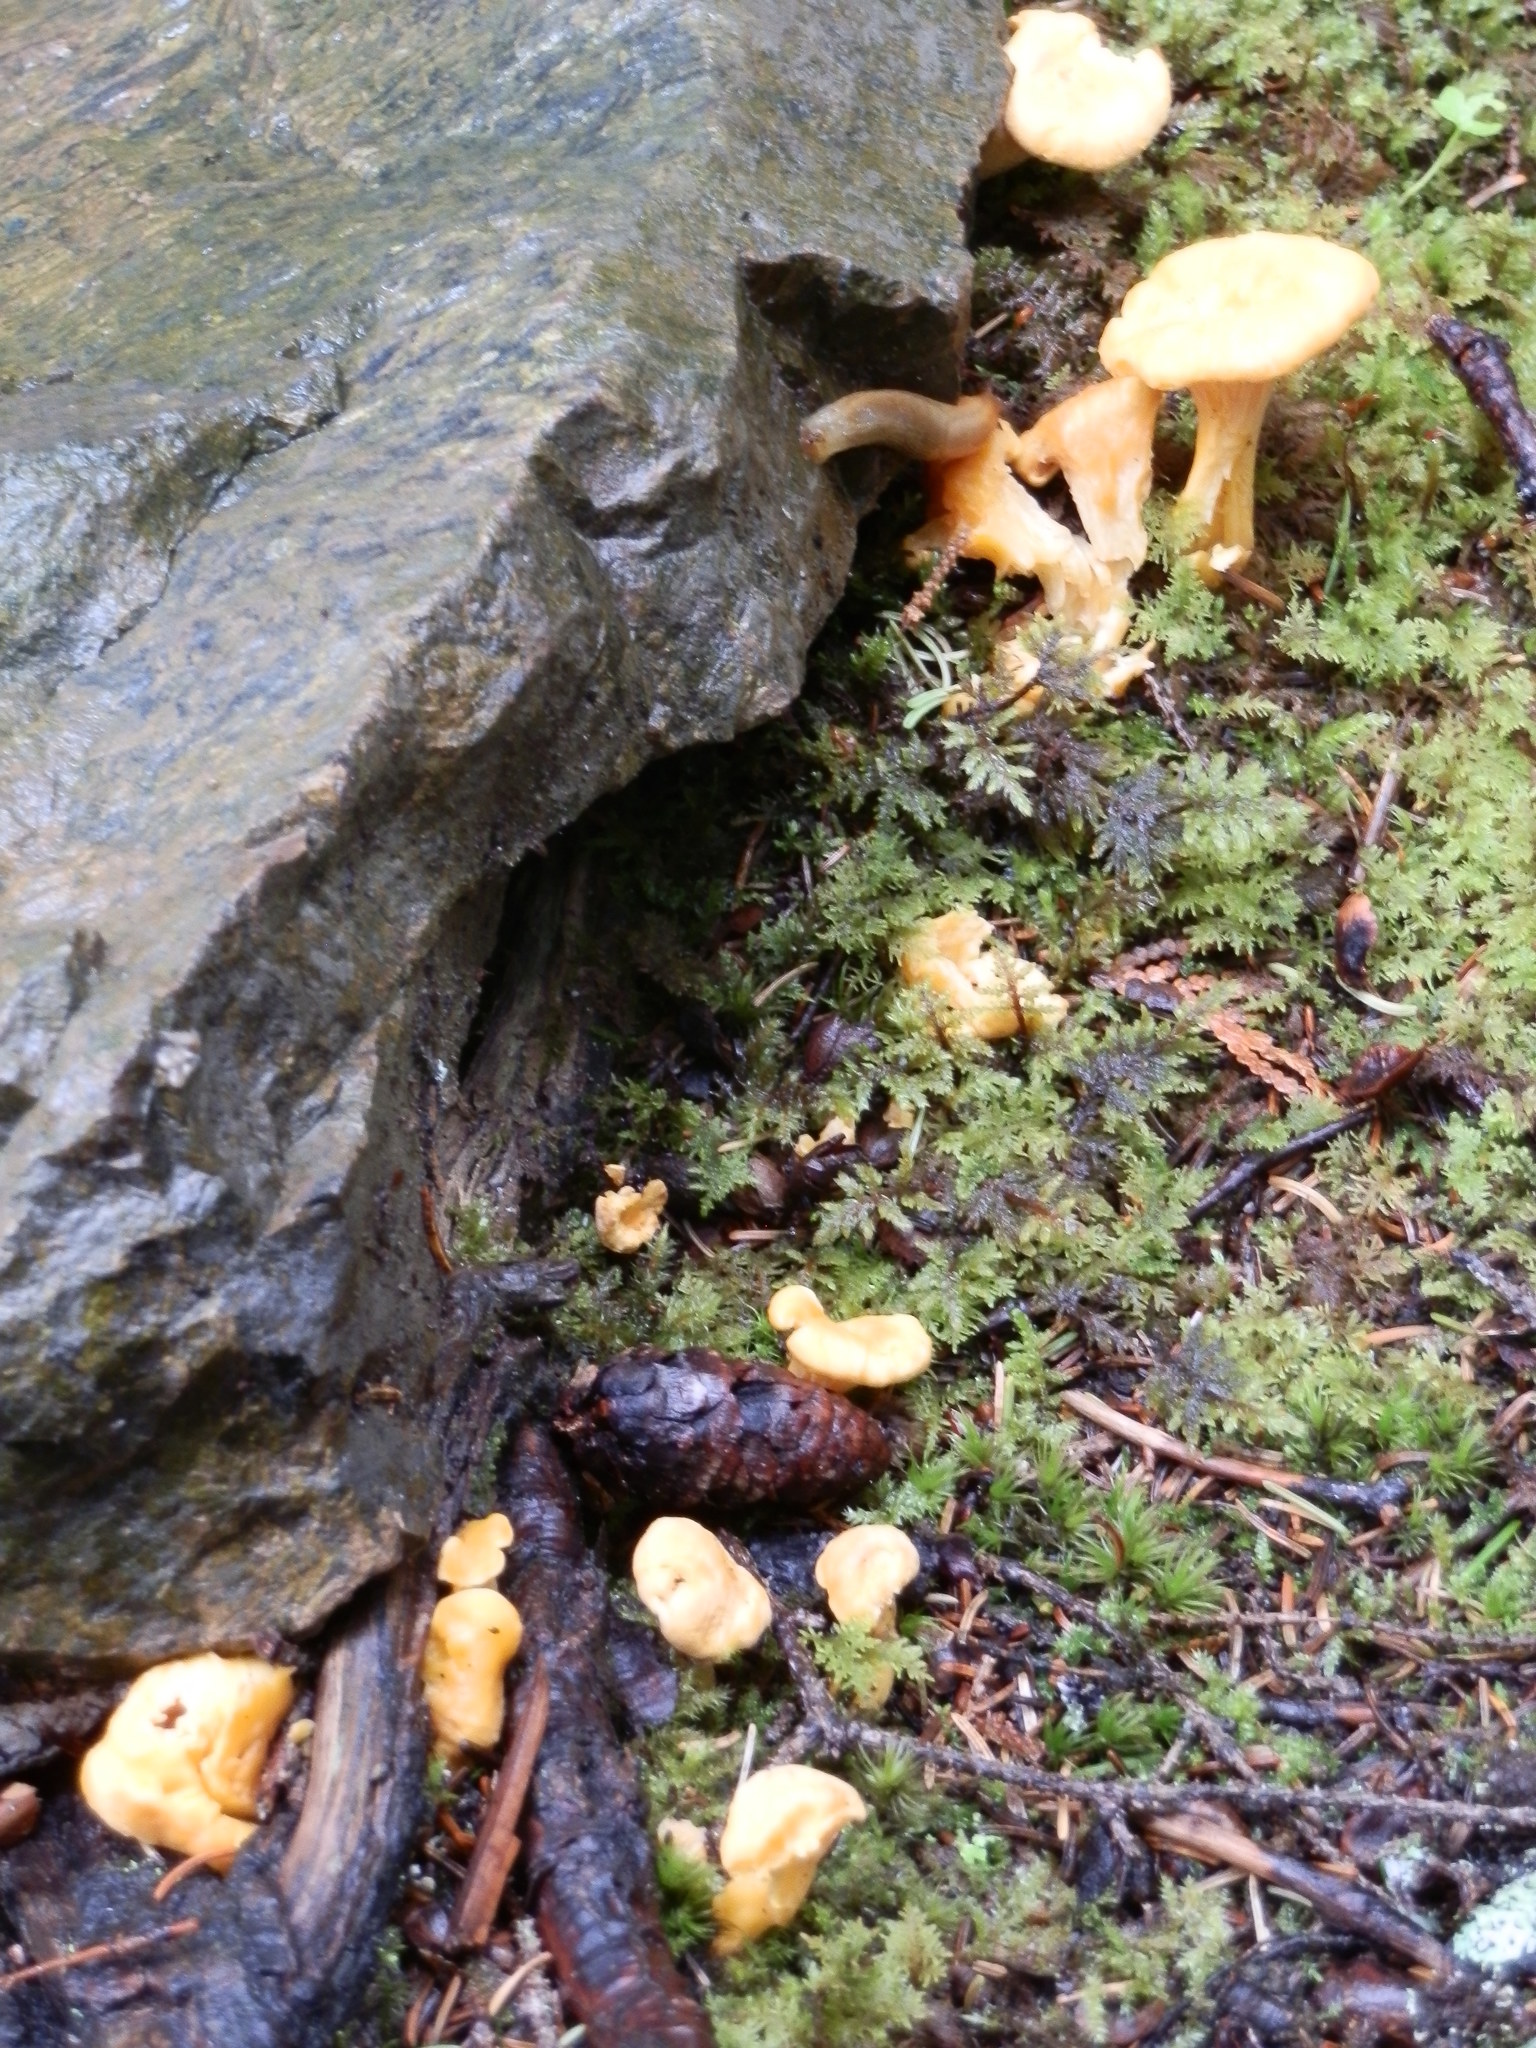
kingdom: Fungi
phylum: Basidiomycota
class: Agaricomycetes
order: Cantharellales
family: Hydnaceae
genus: Cantharellus
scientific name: Cantharellus enelensis
